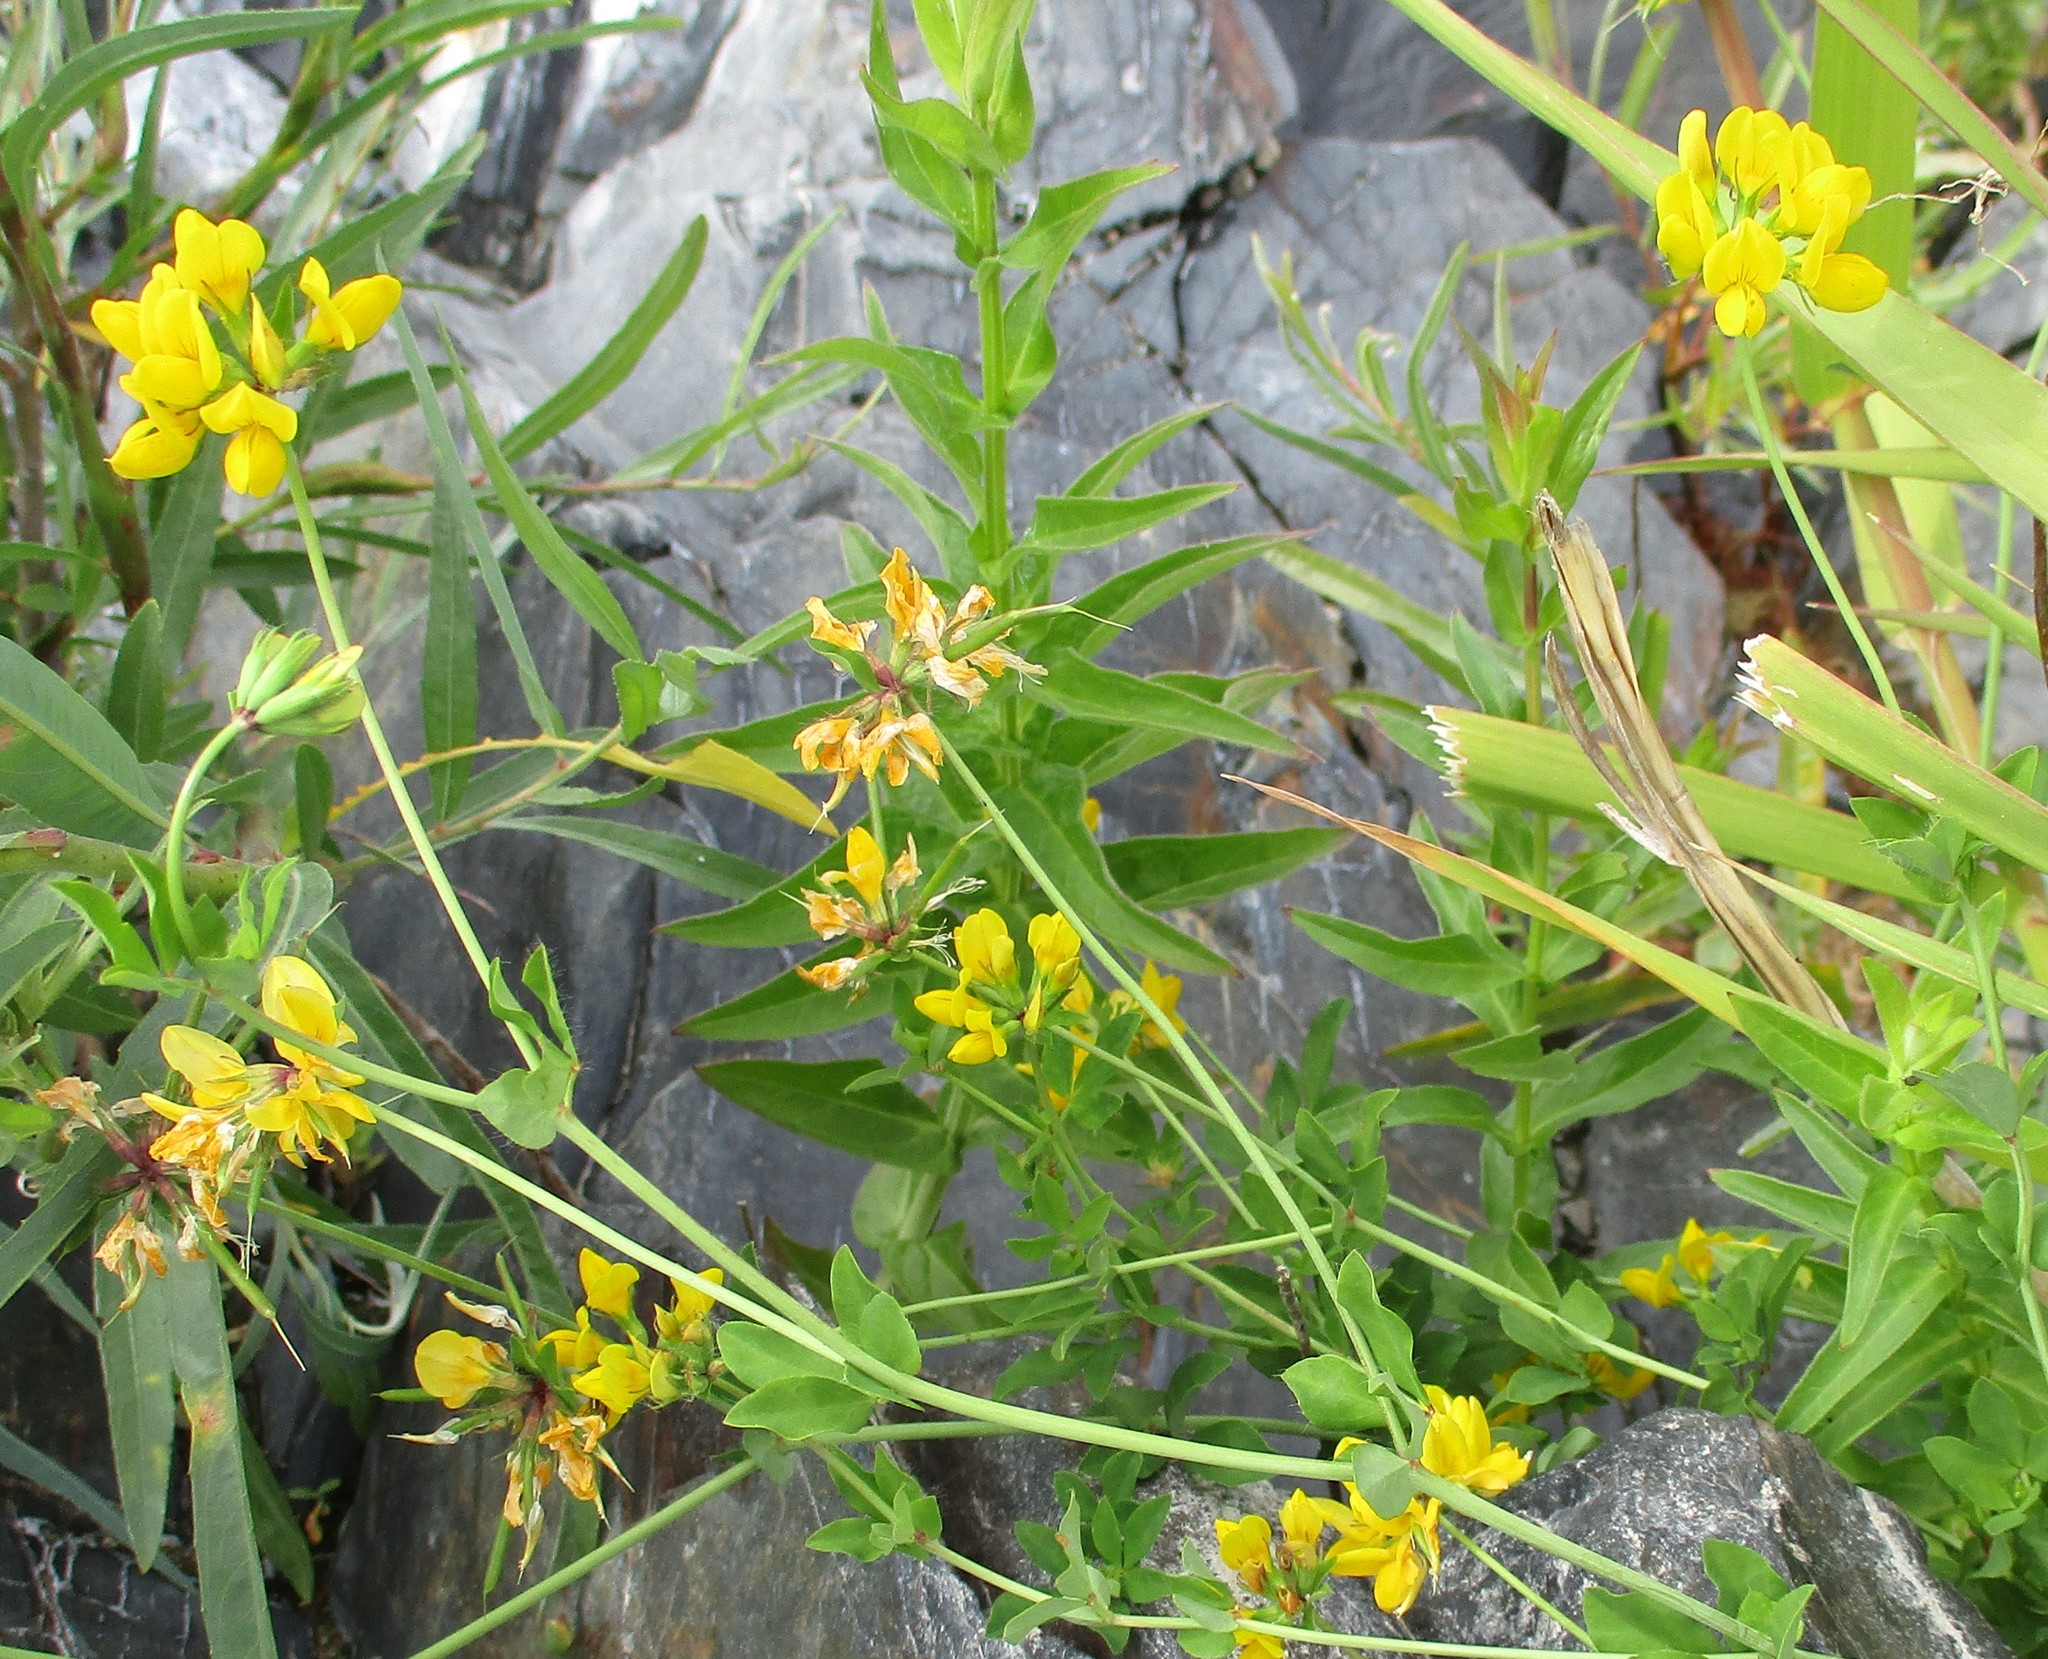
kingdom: Plantae
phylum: Tracheophyta
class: Magnoliopsida
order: Fabales
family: Fabaceae
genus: Lotus
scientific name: Lotus pedunculatus
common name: Greater birdsfoot-trefoil
